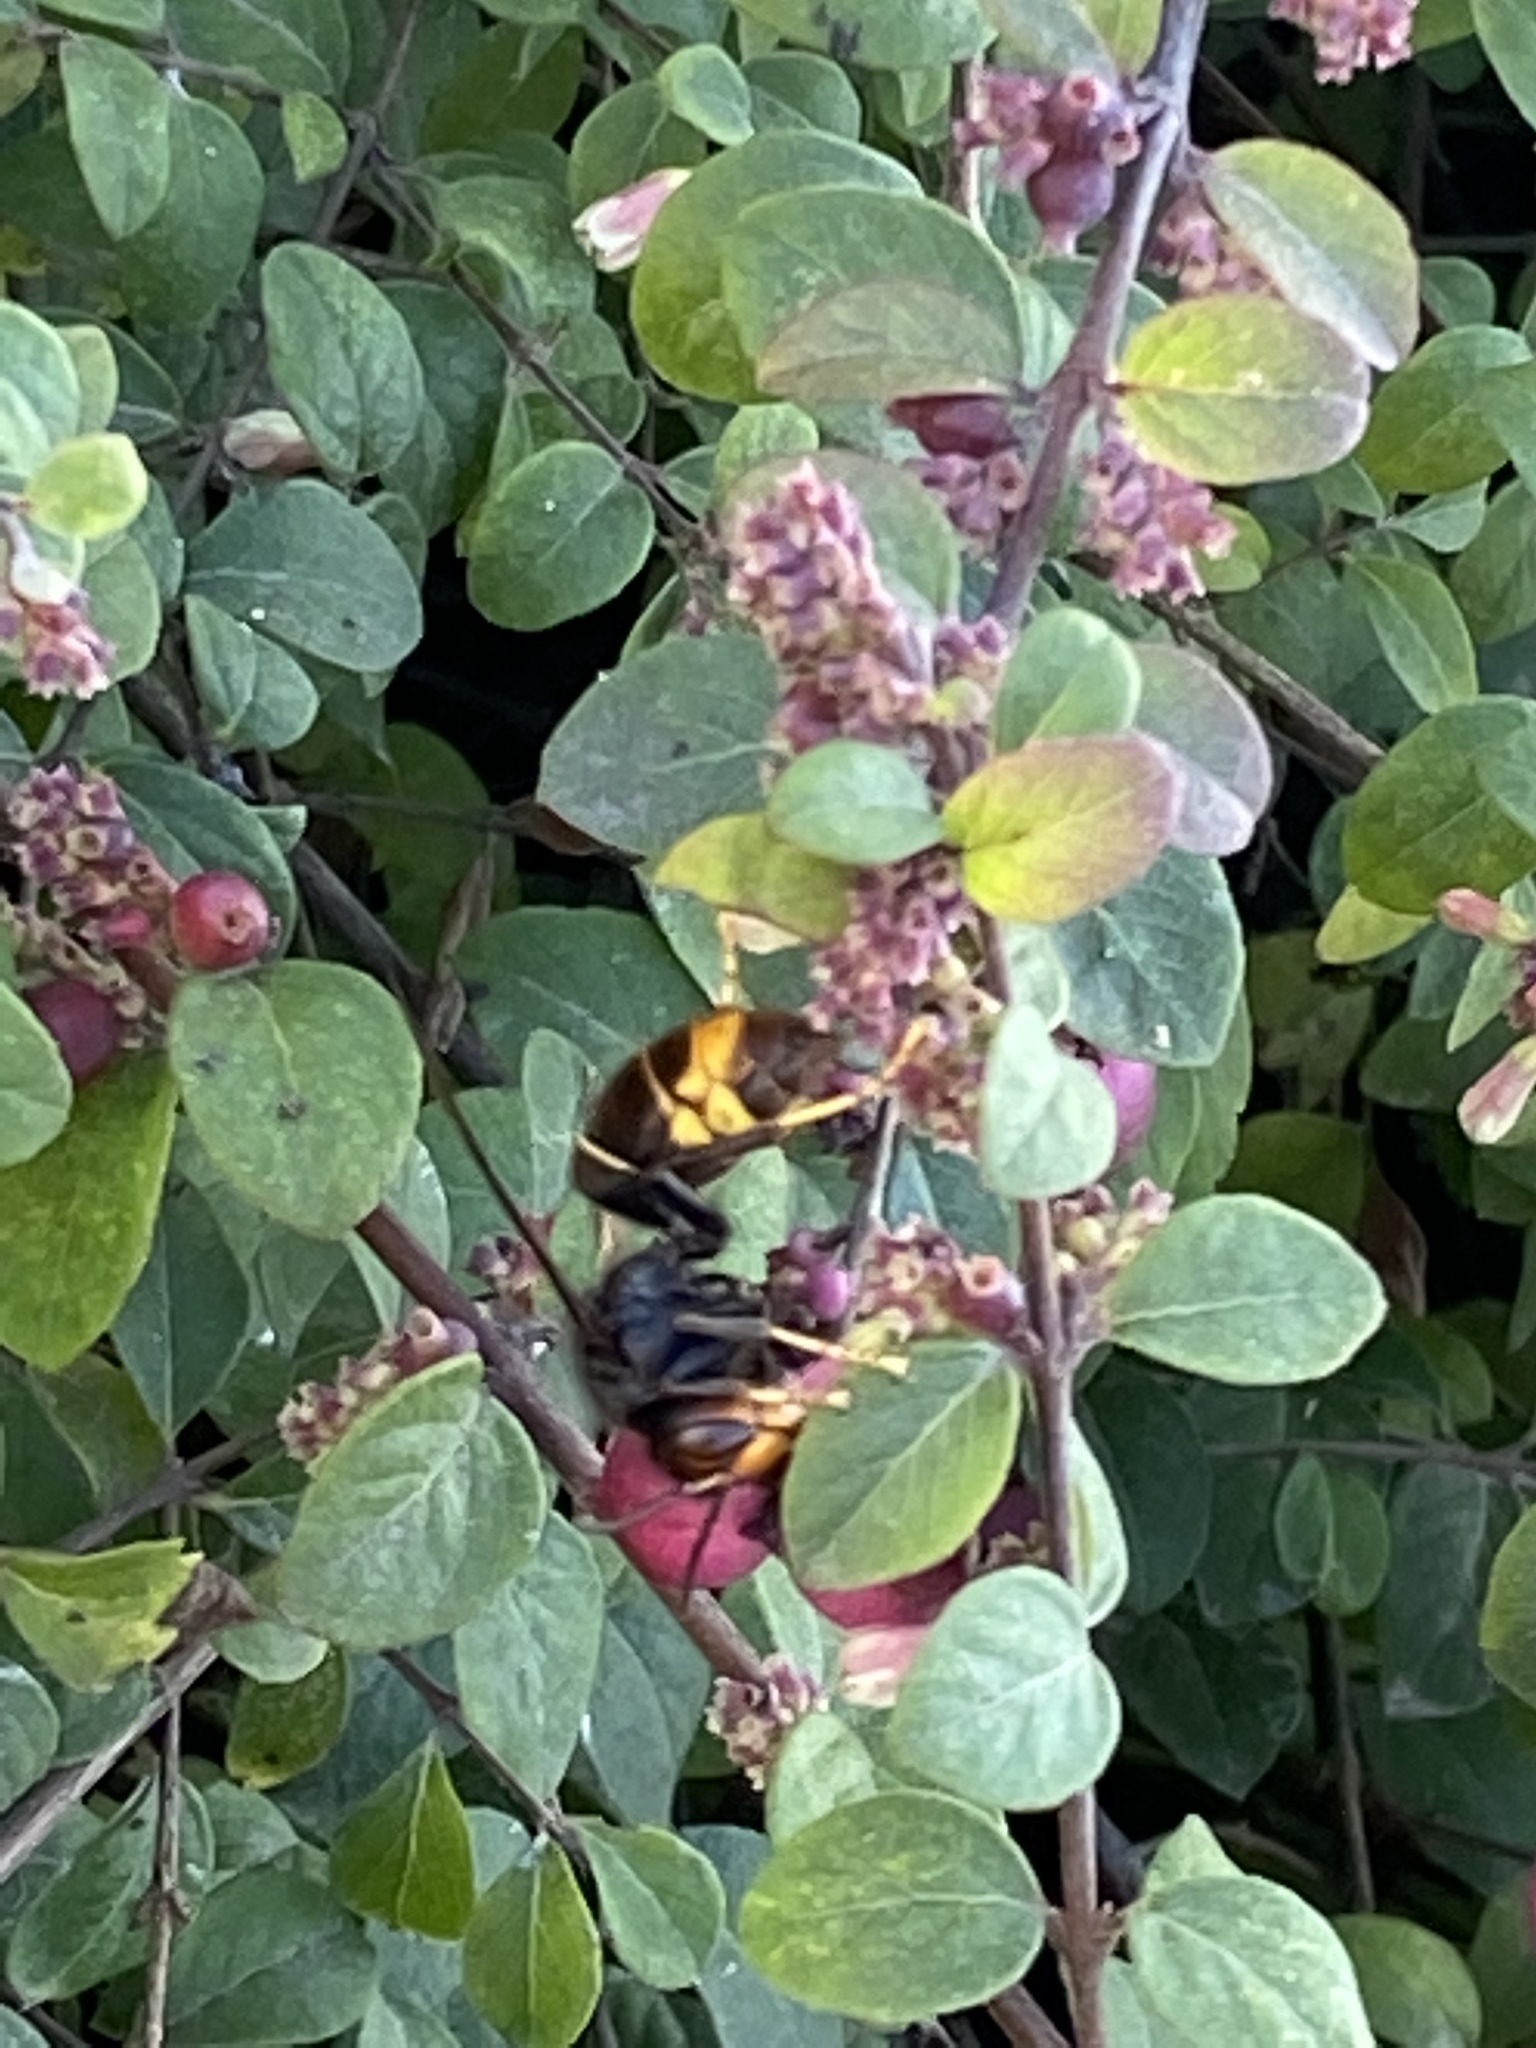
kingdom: Animalia
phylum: Arthropoda
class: Insecta
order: Hymenoptera
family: Vespidae
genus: Vespa
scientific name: Vespa velutina
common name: Asian hornet
